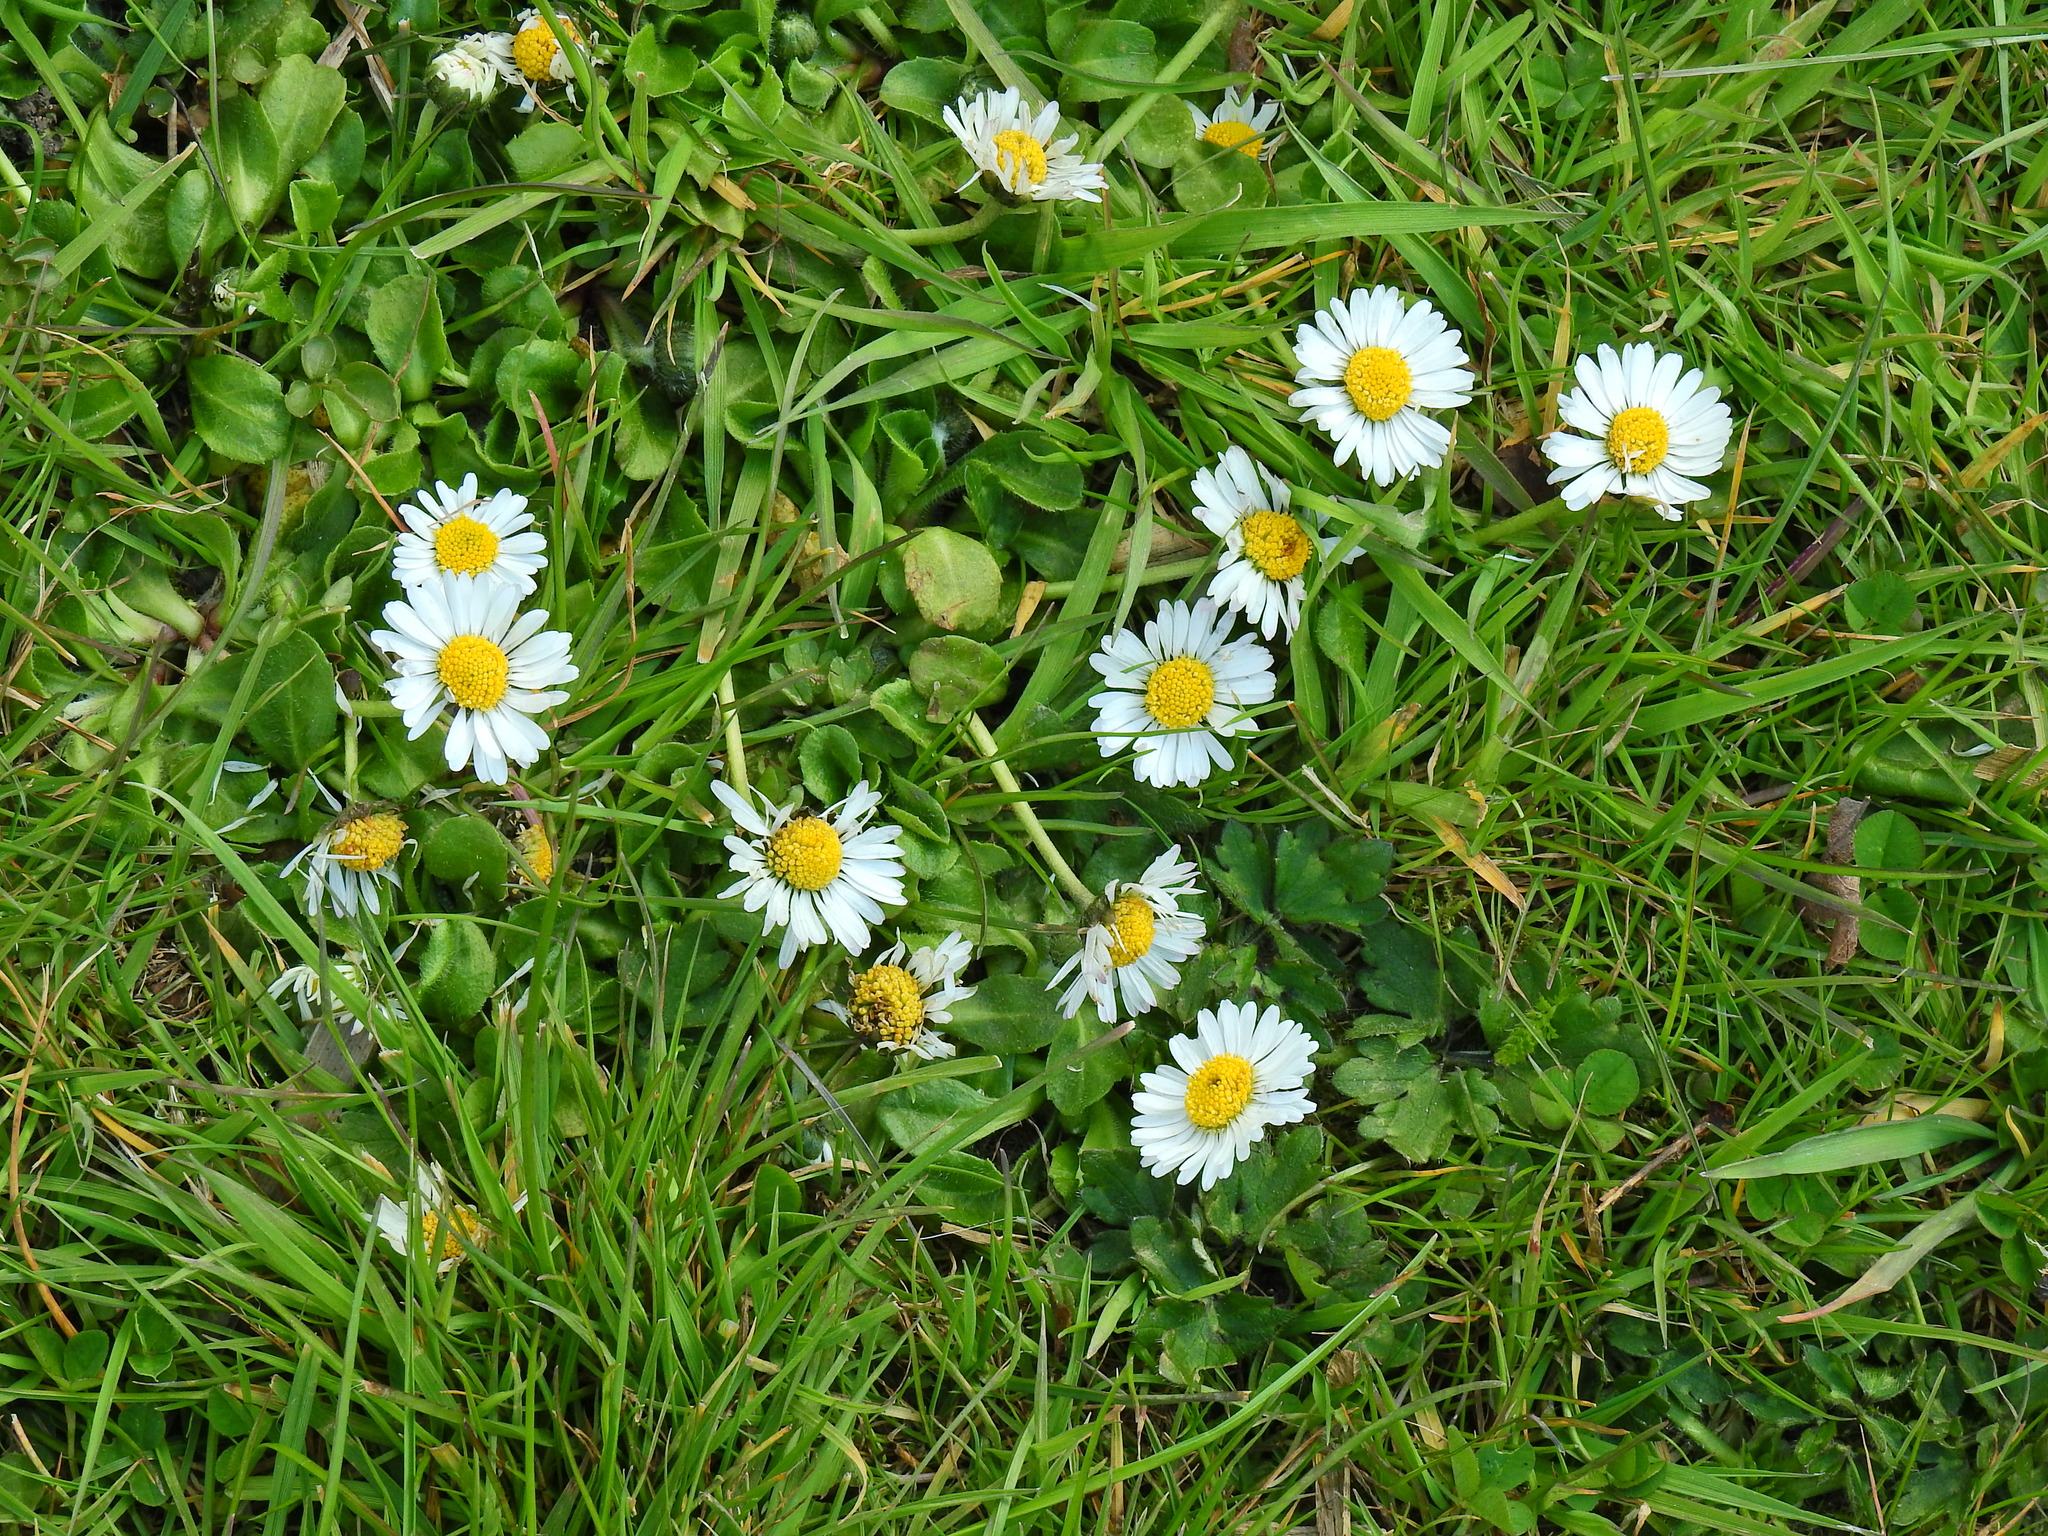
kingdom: Plantae
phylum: Tracheophyta
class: Magnoliopsida
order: Asterales
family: Asteraceae
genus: Bellis
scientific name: Bellis perennis
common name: Lawndaisy
